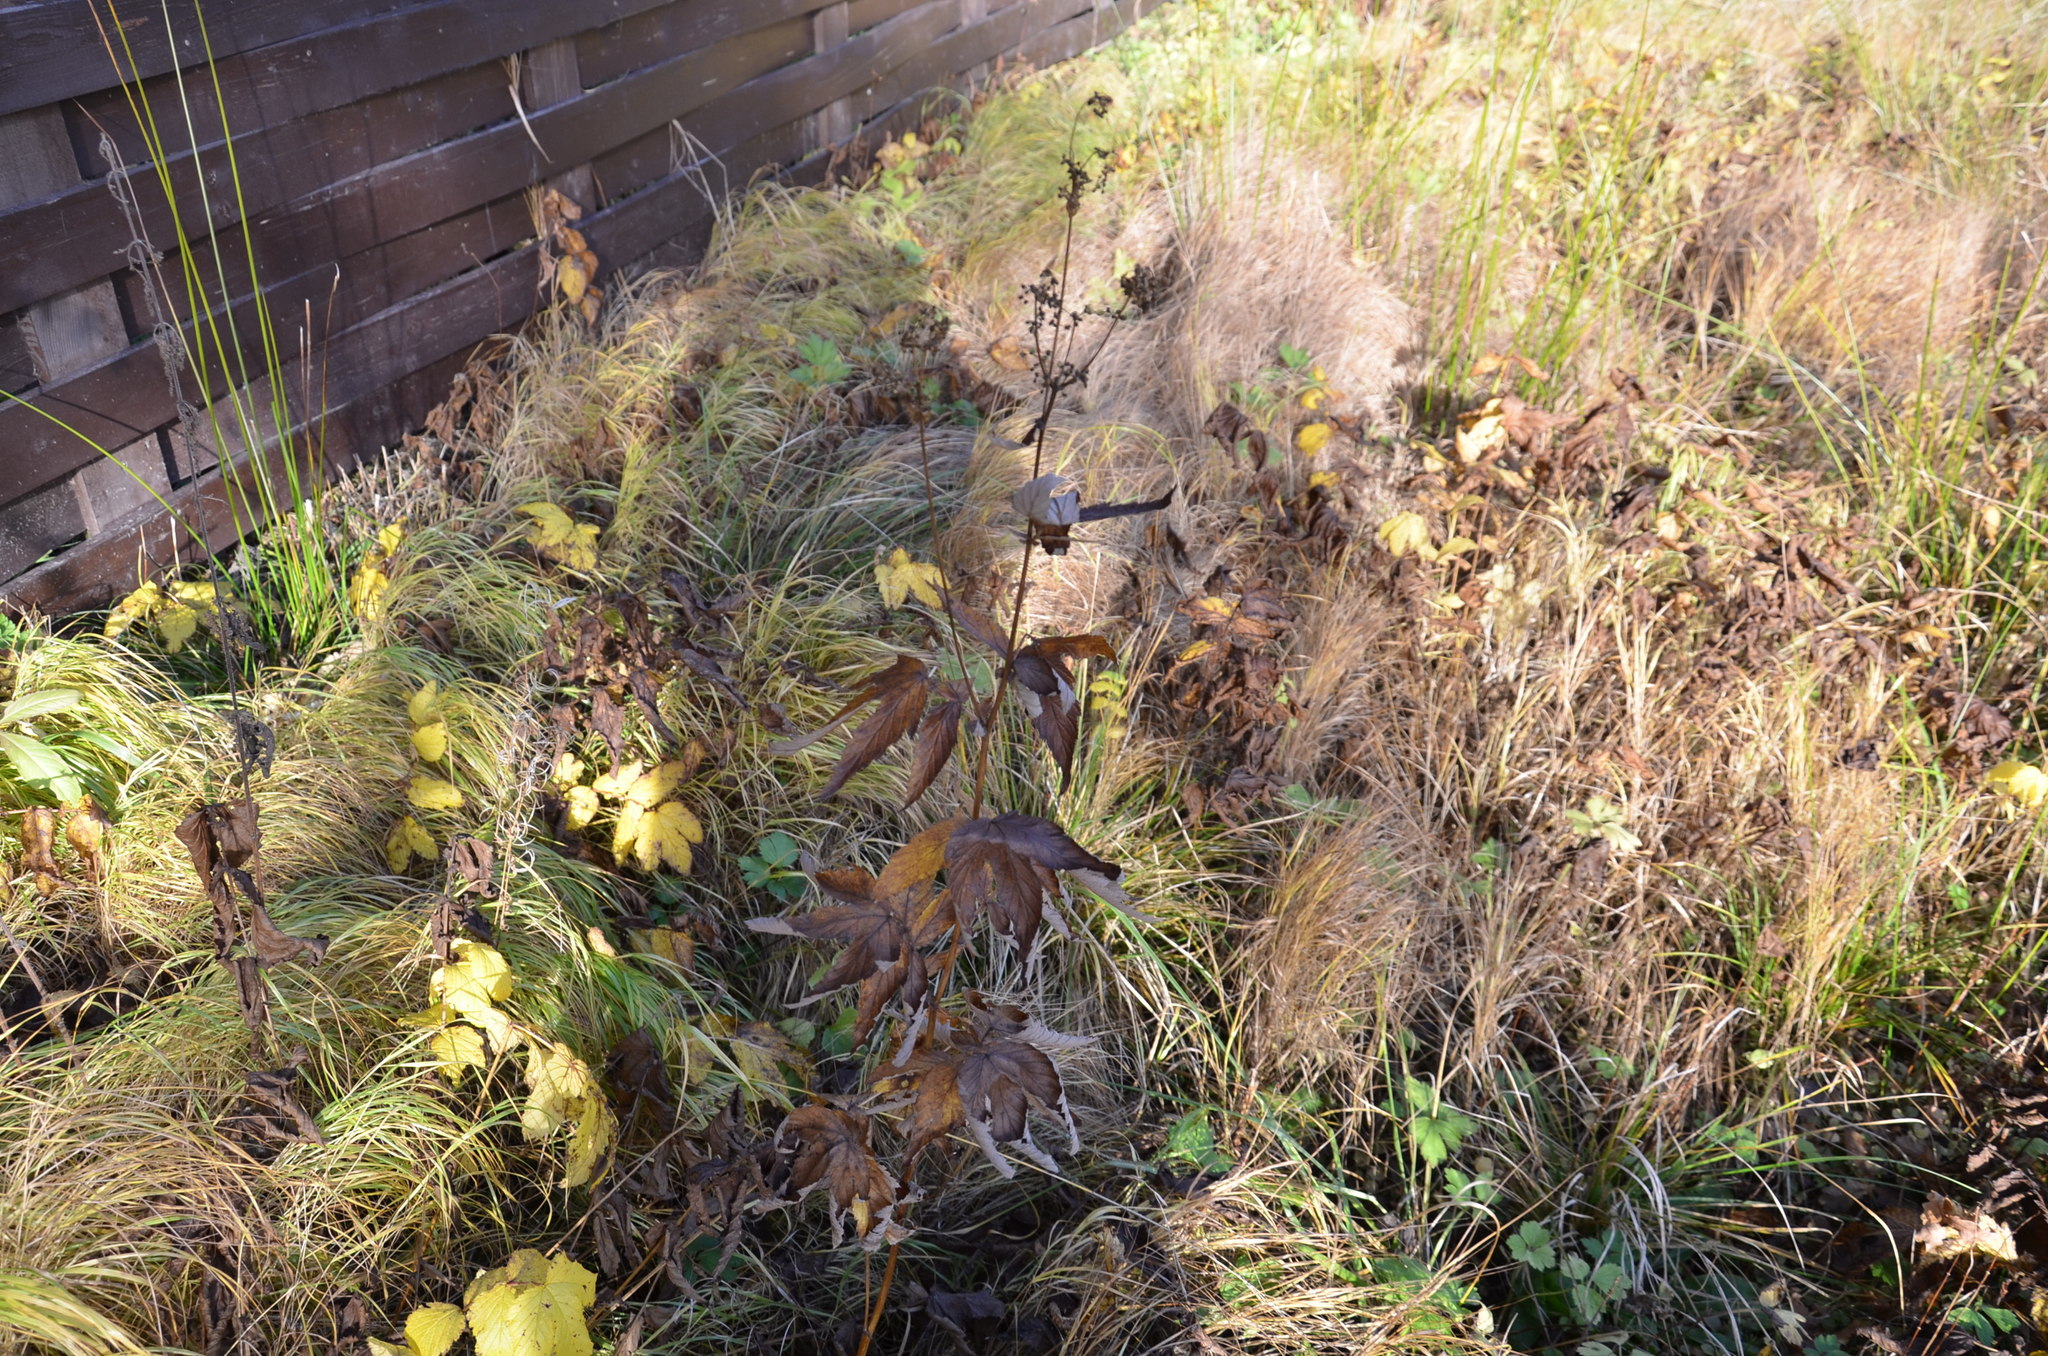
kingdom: Plantae
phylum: Tracheophyta
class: Magnoliopsida
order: Rosales
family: Rosaceae
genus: Filipendula
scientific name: Filipendula ulmaria
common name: Meadowsweet
